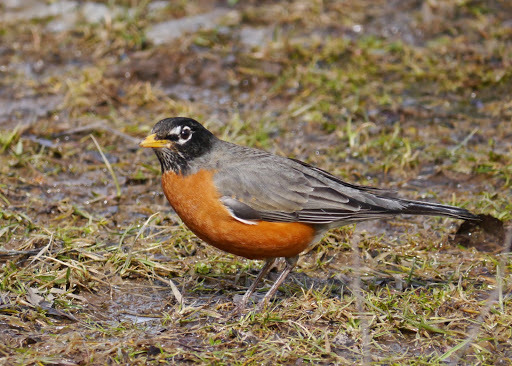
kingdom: Animalia
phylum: Chordata
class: Aves
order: Passeriformes
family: Turdidae
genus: Turdus
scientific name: Turdus migratorius
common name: American robin
